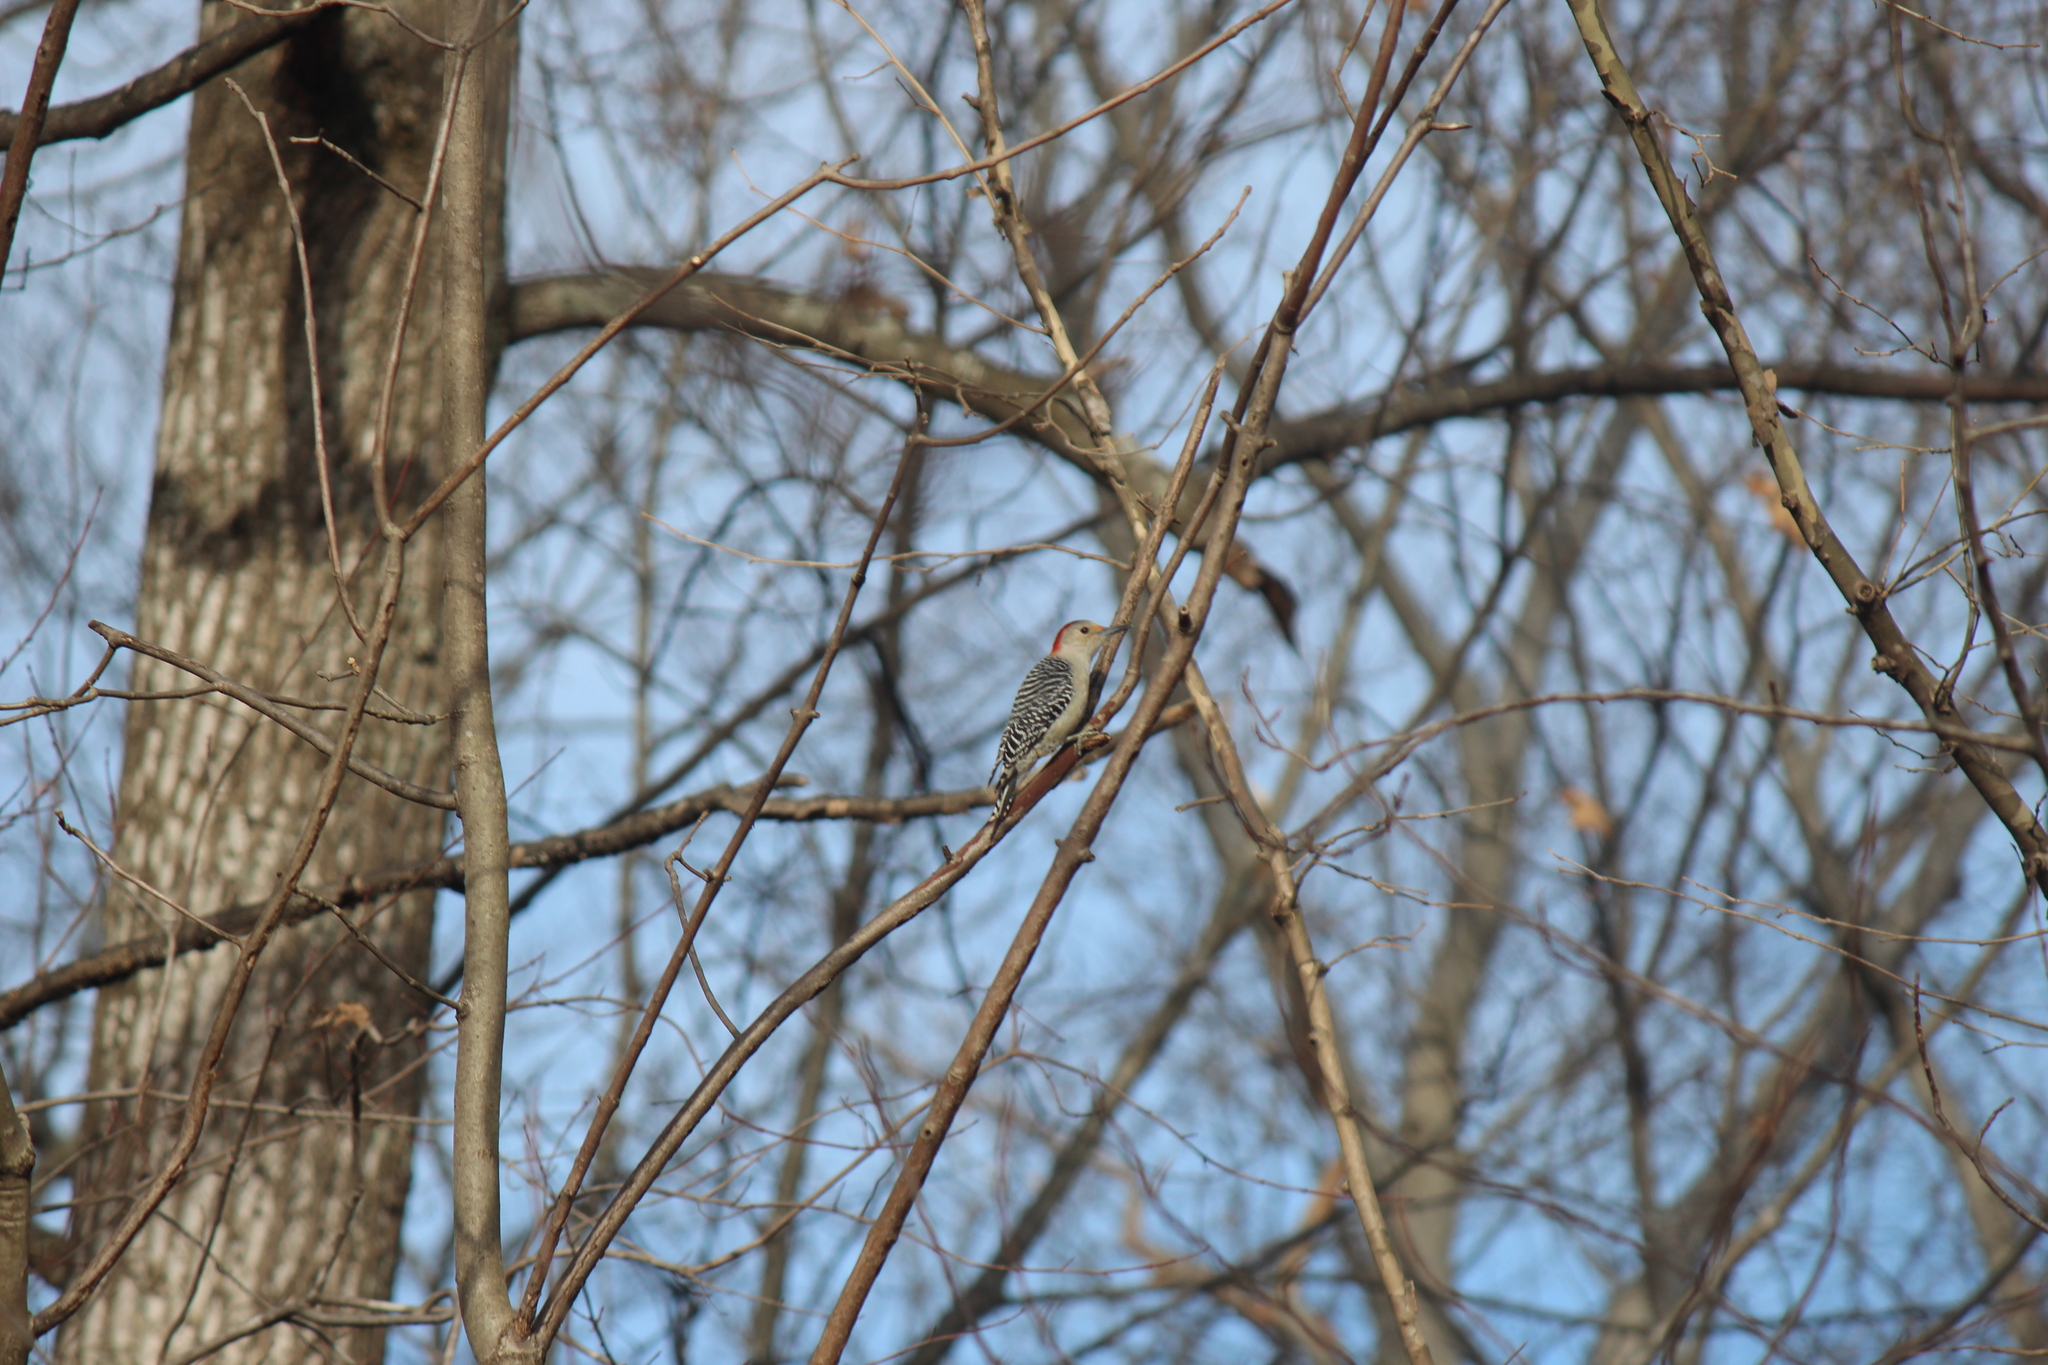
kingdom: Animalia
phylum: Chordata
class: Aves
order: Piciformes
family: Picidae
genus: Melanerpes
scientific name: Melanerpes carolinus
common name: Red-bellied woodpecker
